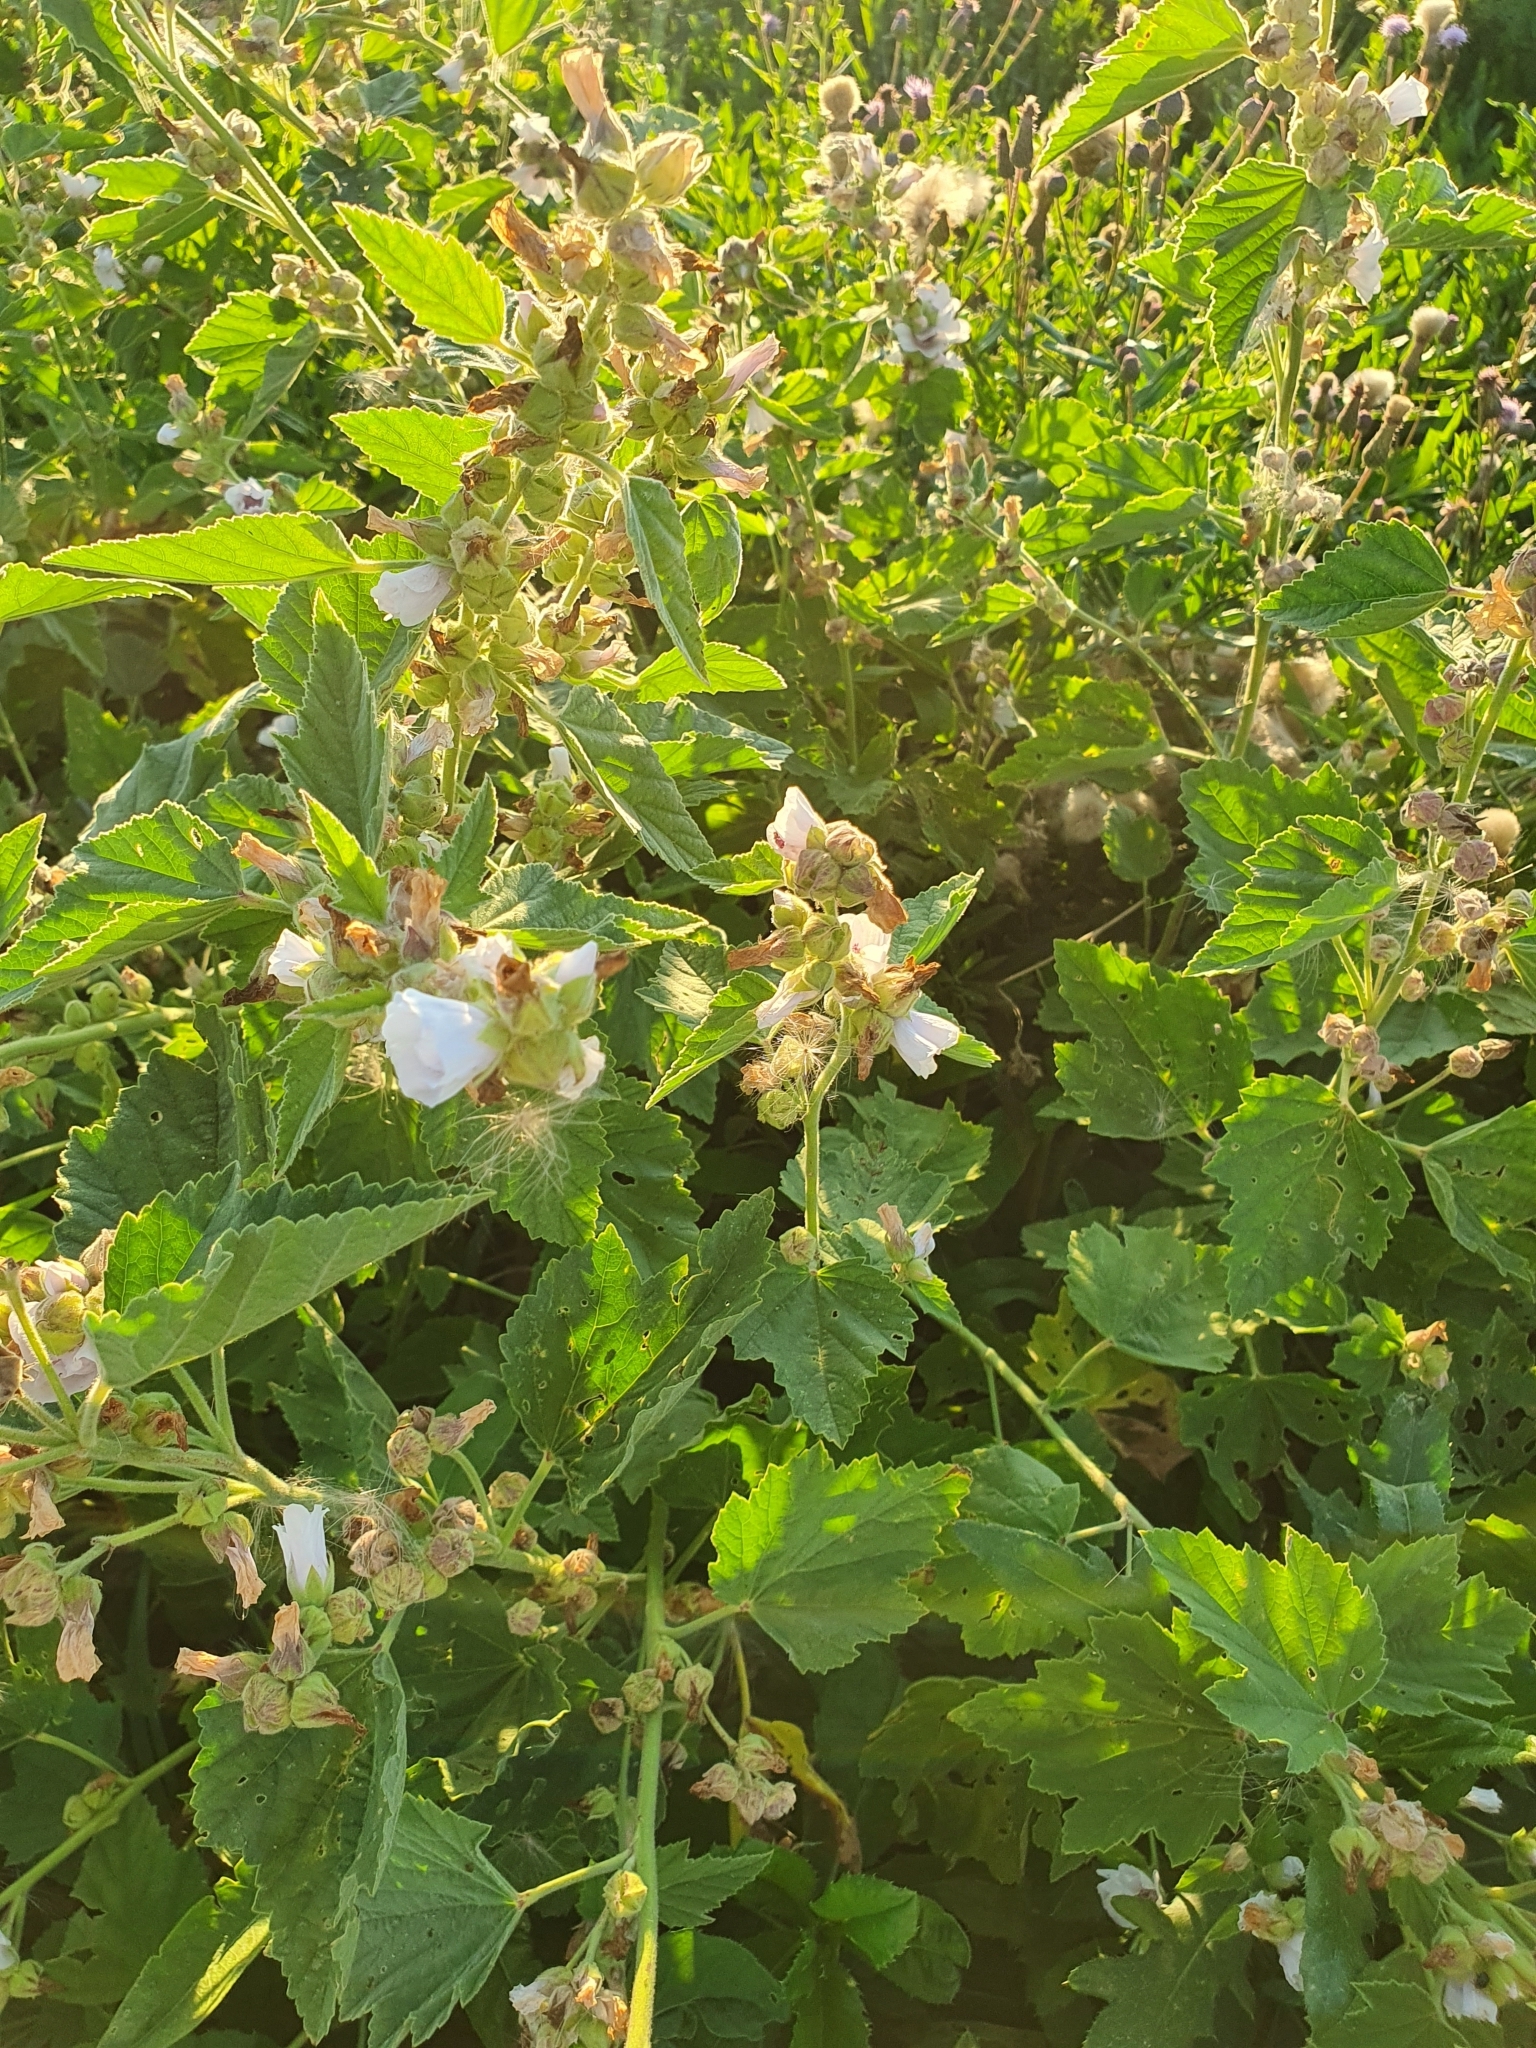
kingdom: Plantae
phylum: Tracheophyta
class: Magnoliopsida
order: Malvales
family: Malvaceae
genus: Althaea
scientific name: Althaea officinalis
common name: Marsh-mallow
